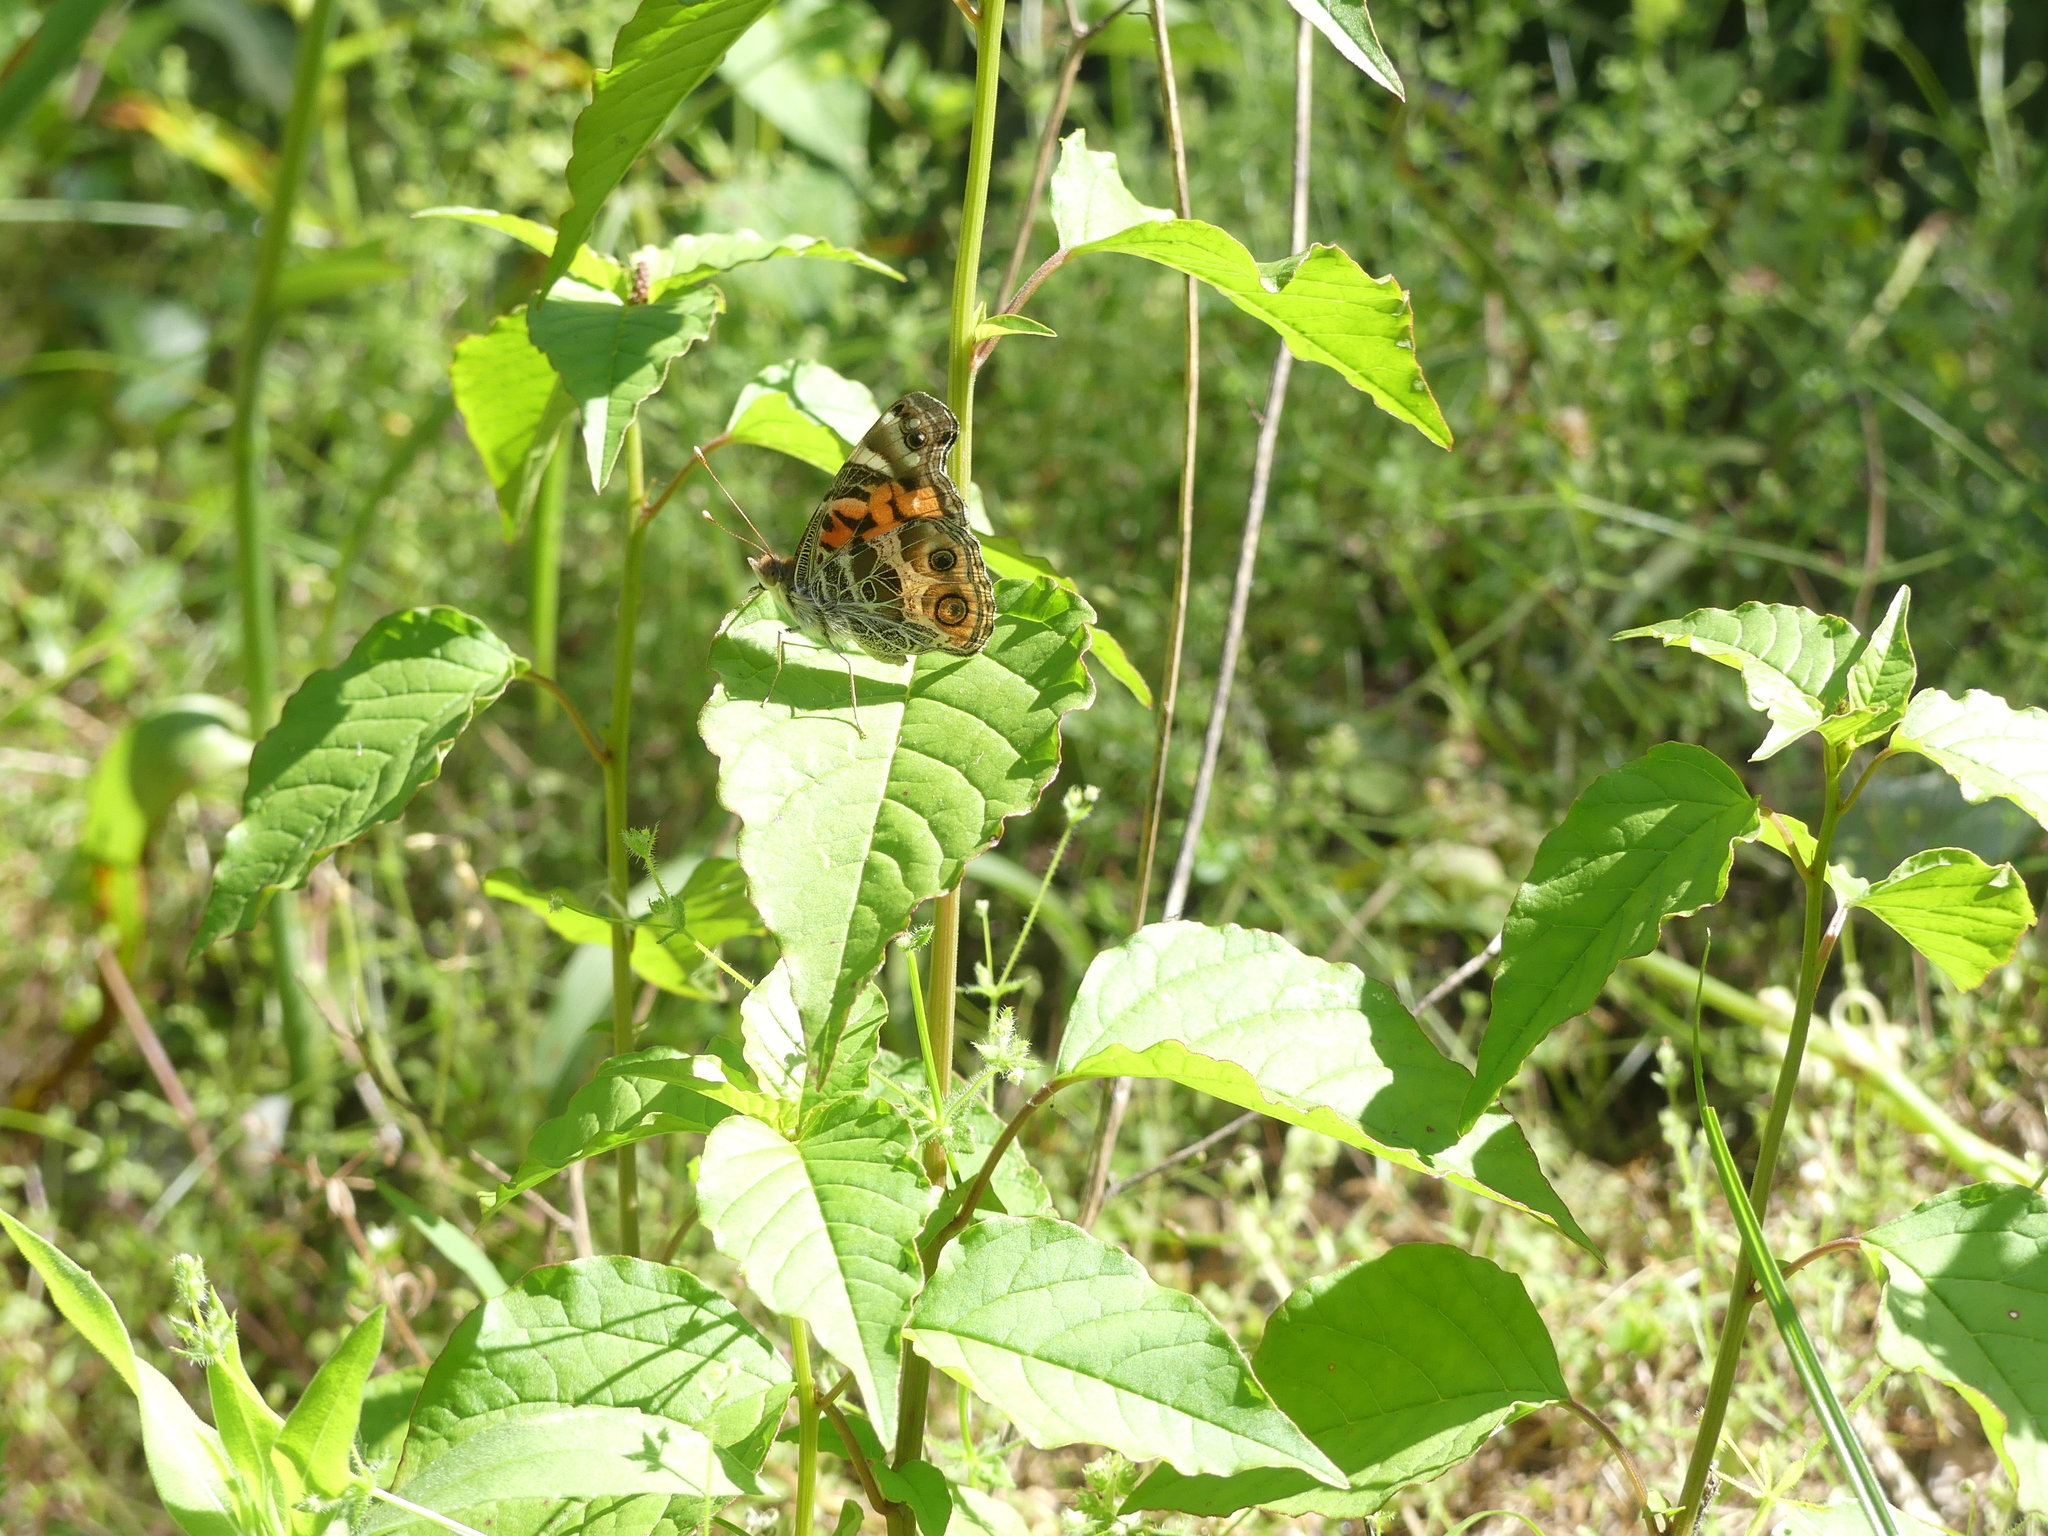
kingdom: Animalia
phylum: Arthropoda
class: Insecta
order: Lepidoptera
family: Nymphalidae
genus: Vanessa
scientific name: Vanessa virginiensis
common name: American lady
